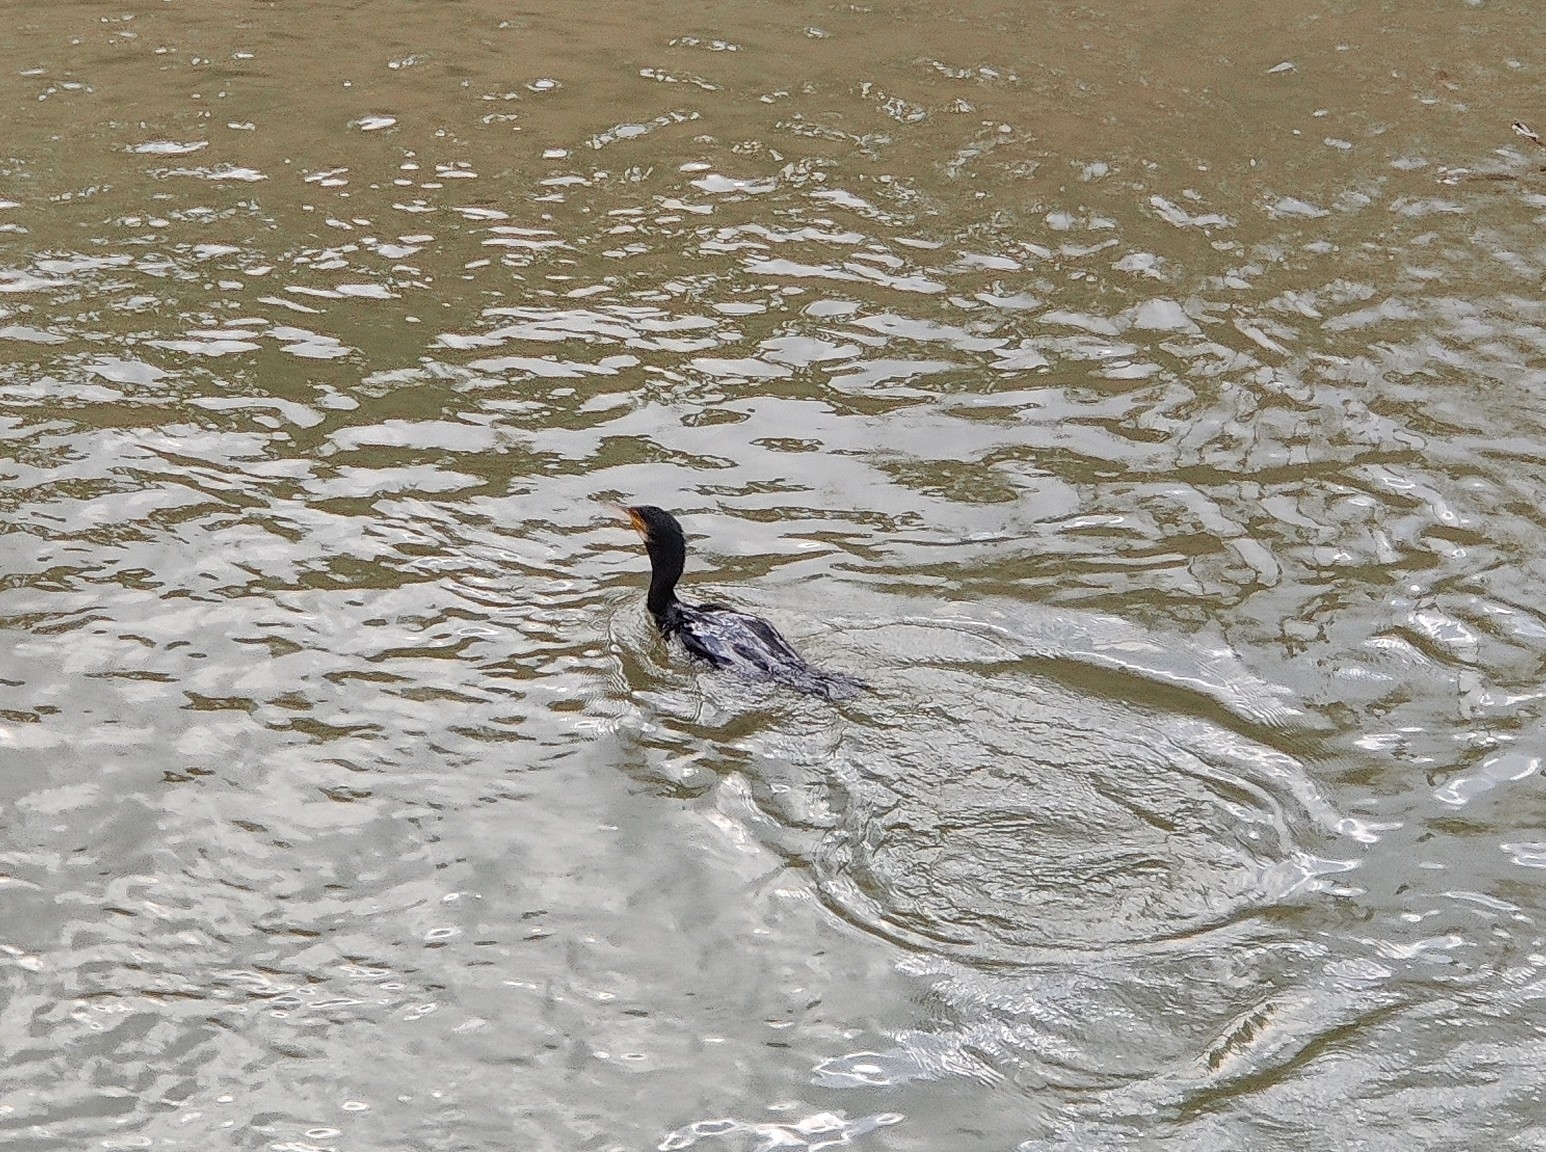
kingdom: Animalia
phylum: Chordata
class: Aves
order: Suliformes
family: Phalacrocoracidae
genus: Phalacrocorax
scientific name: Phalacrocorax carbo
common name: Great cormorant
